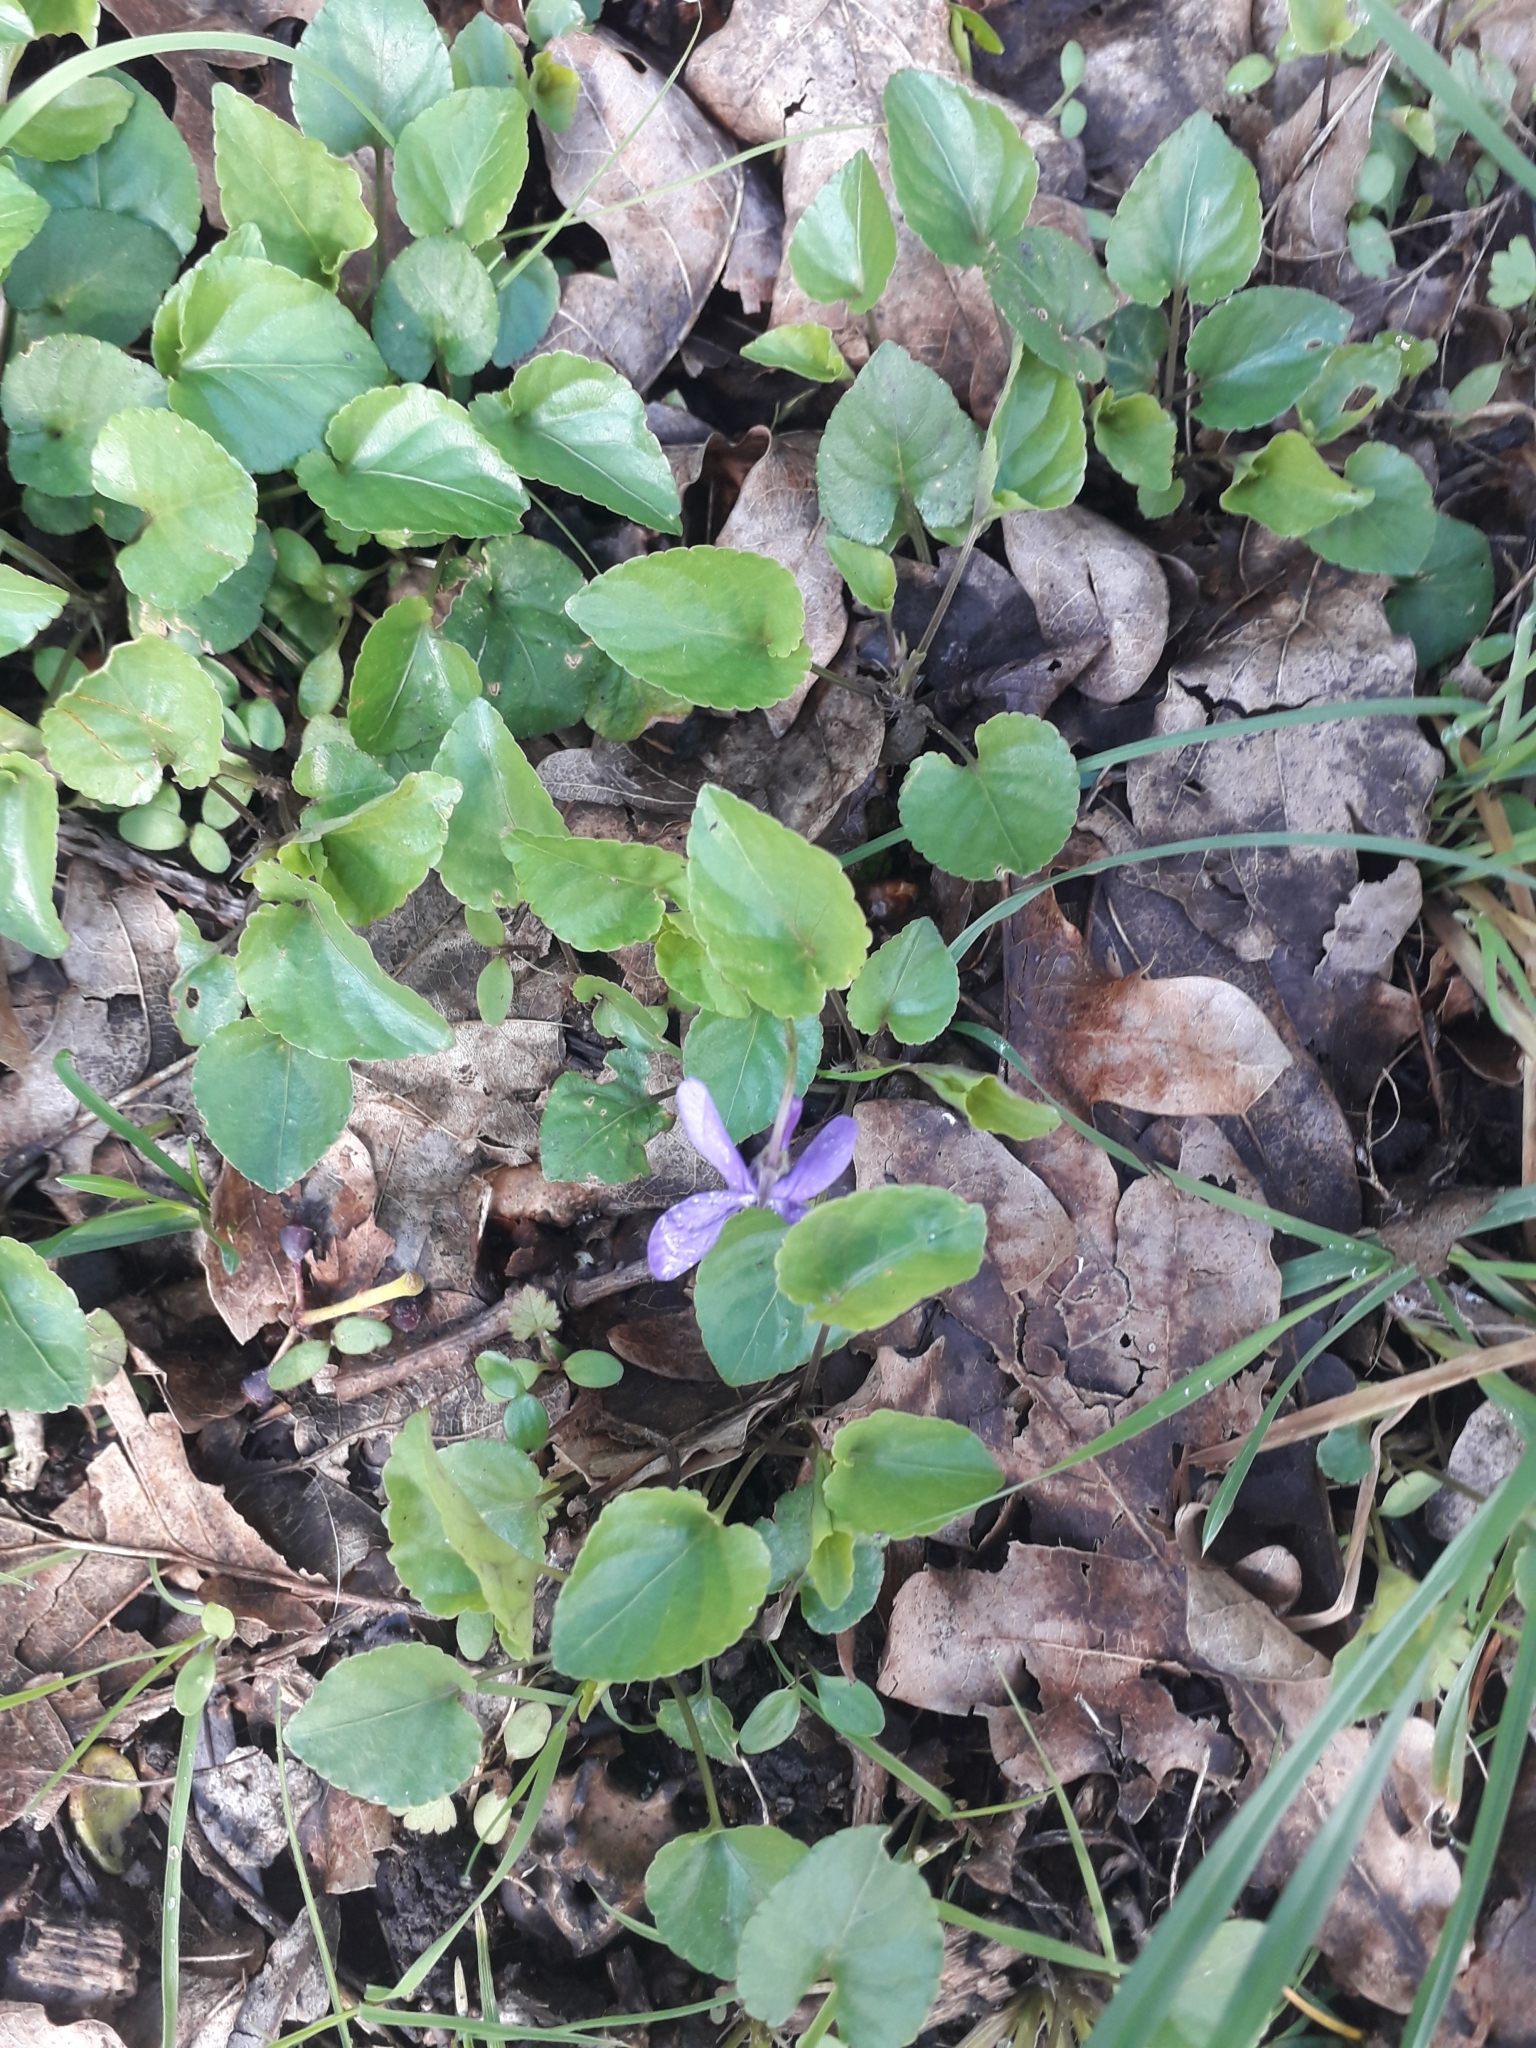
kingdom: Plantae
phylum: Tracheophyta
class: Magnoliopsida
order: Malpighiales
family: Violaceae
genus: Viola
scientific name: Viola reichenbachiana
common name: Early dog-violet
